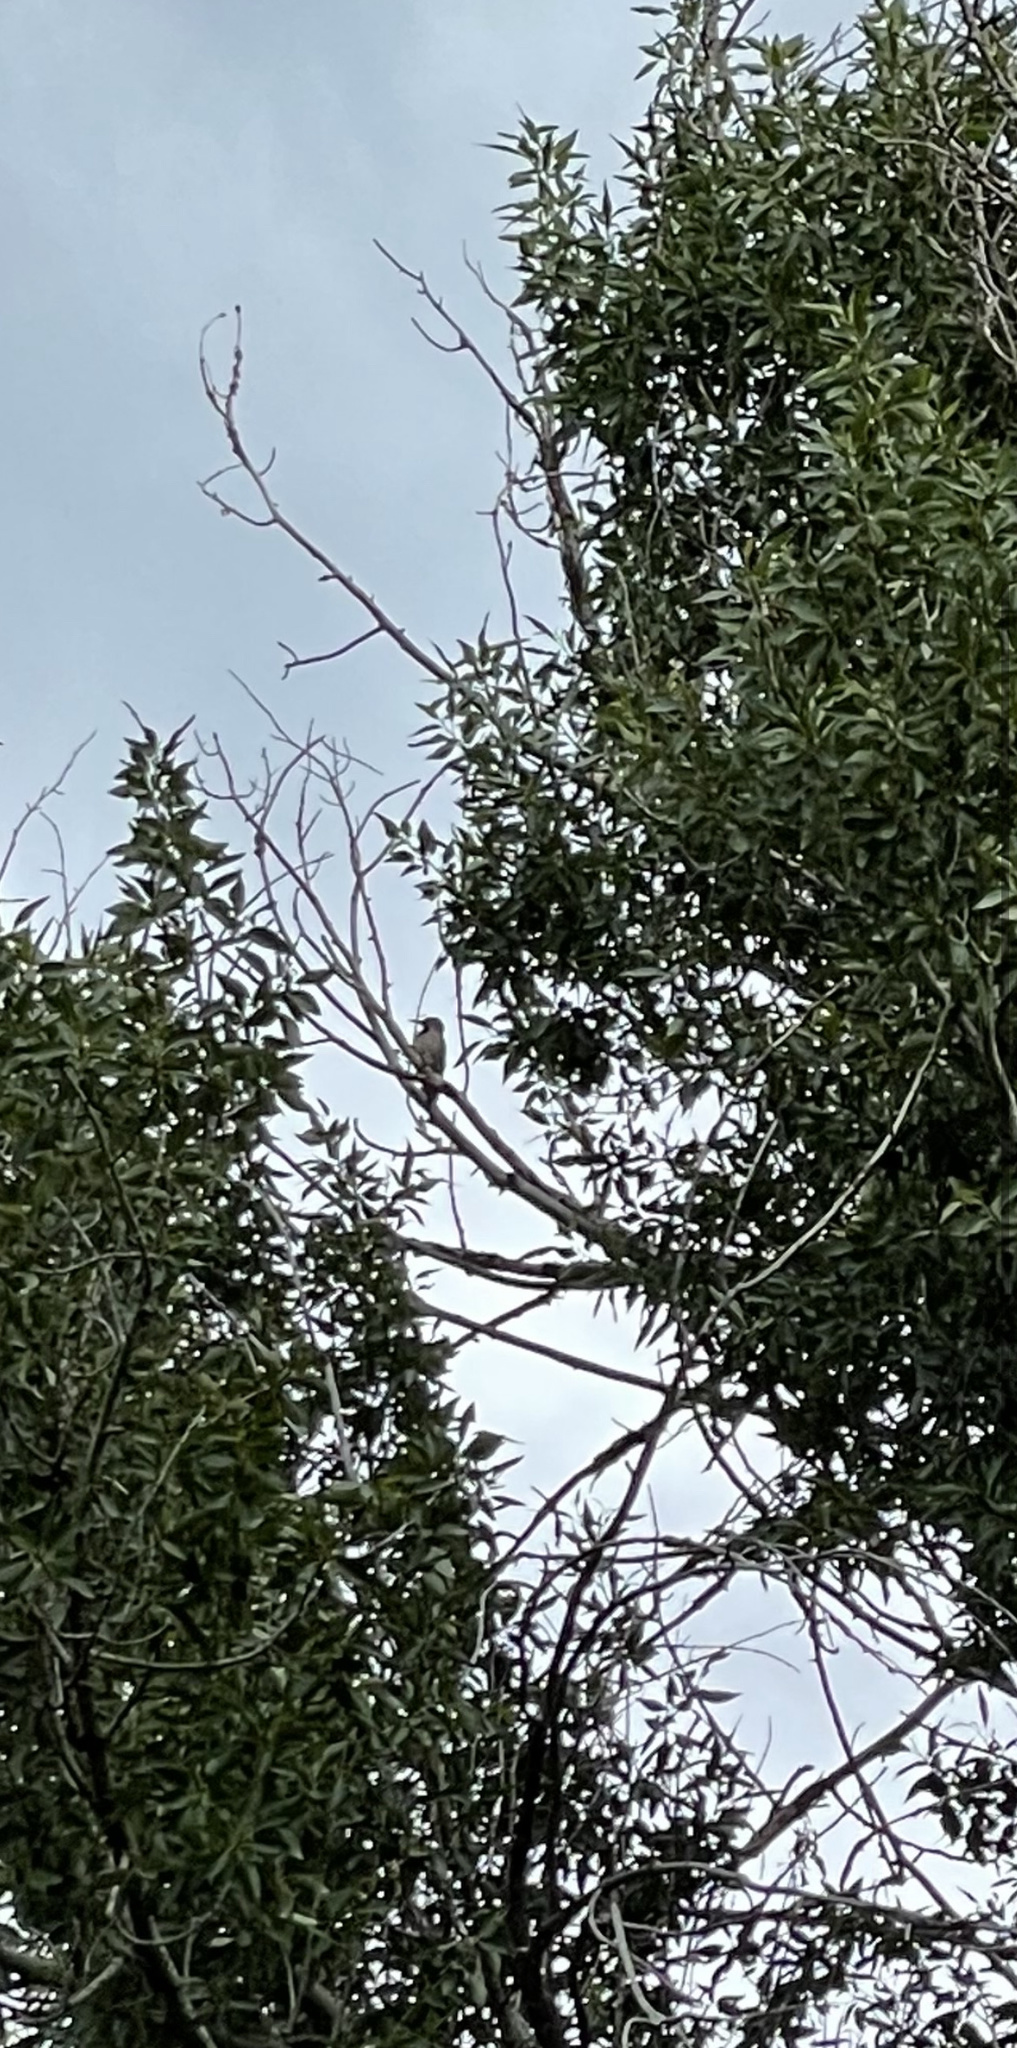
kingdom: Animalia
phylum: Chordata
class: Aves
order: Piciformes
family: Picidae
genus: Colaptes
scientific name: Colaptes auratus
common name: Northern flicker
